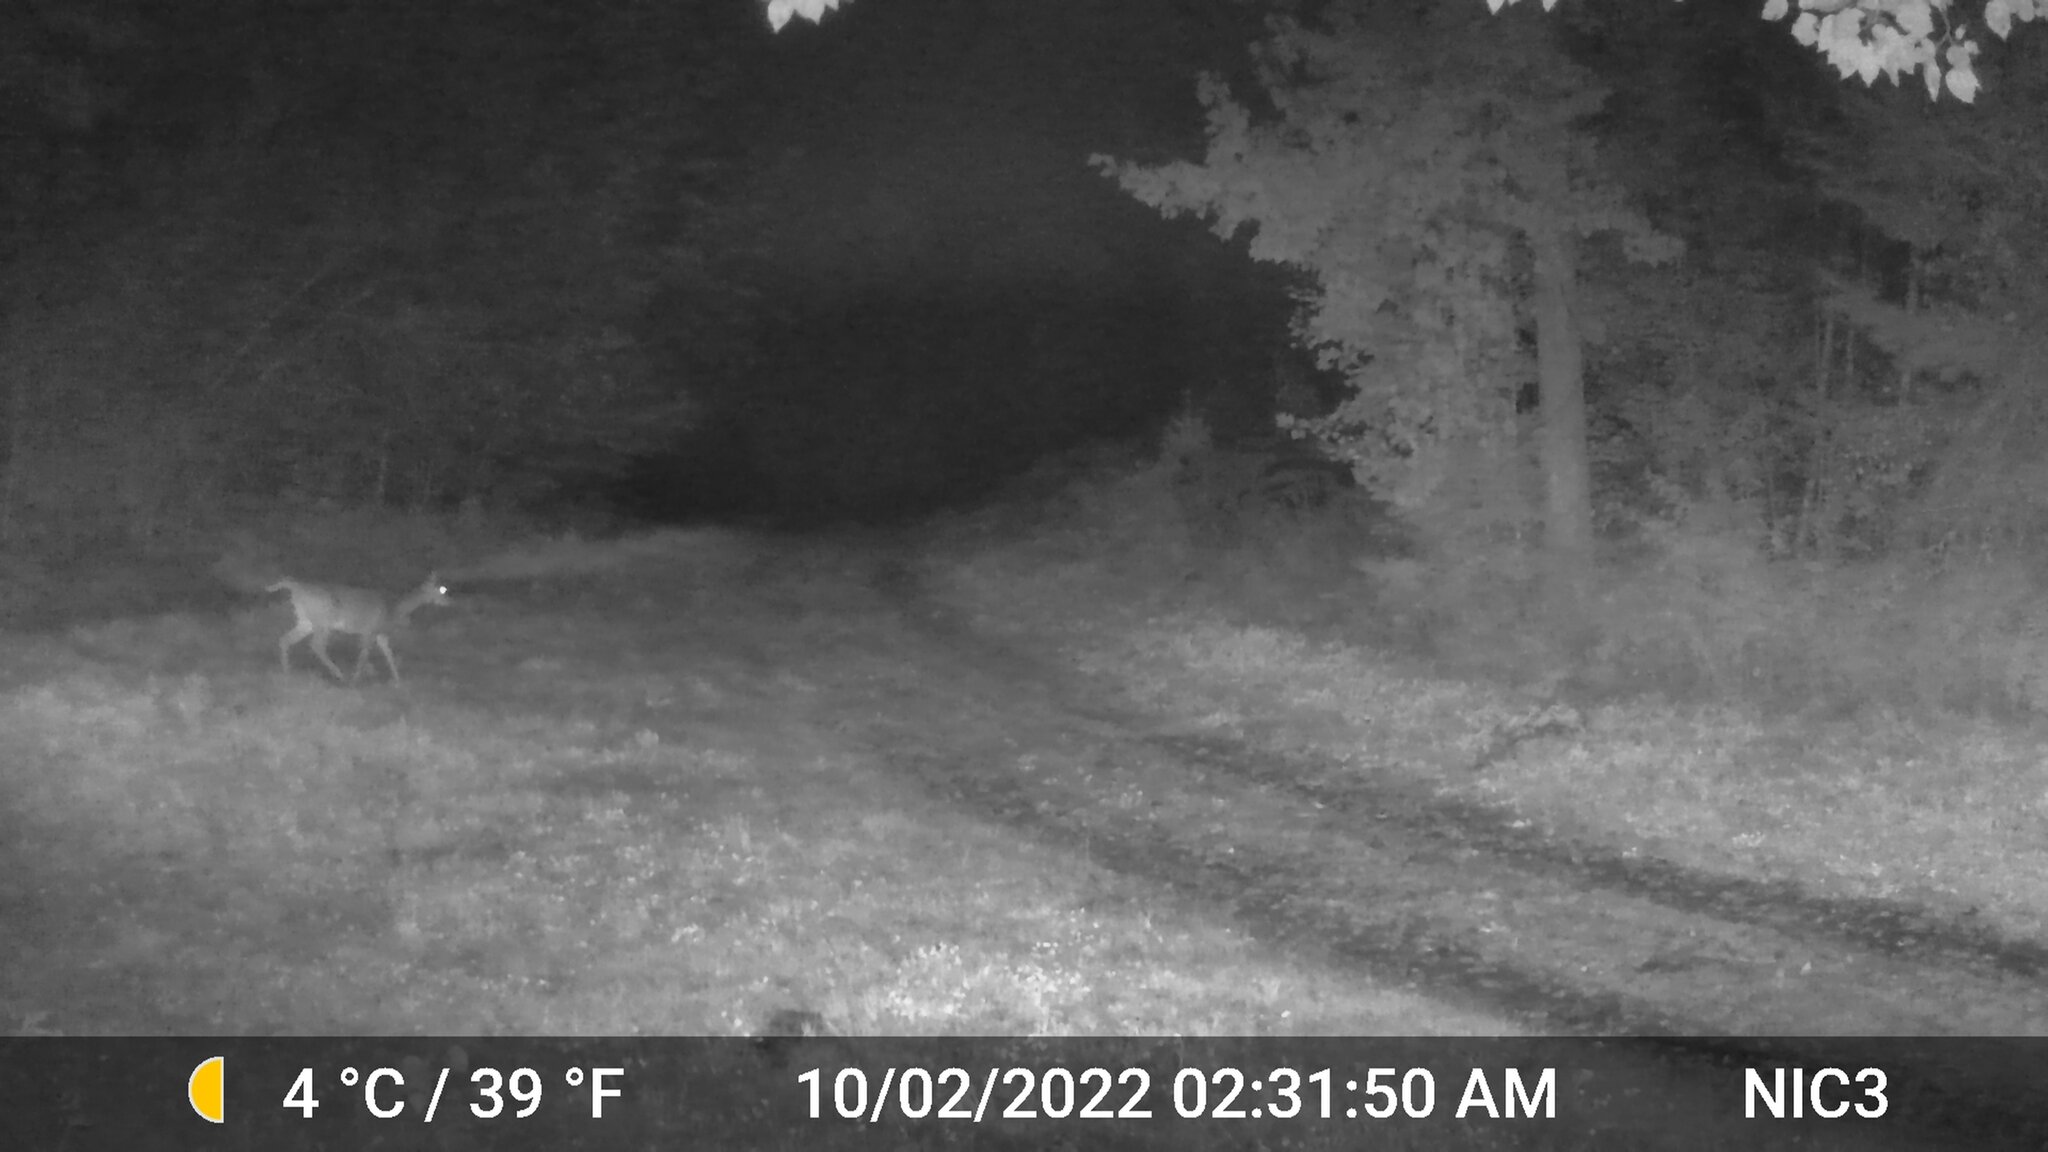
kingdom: Animalia
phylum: Chordata
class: Mammalia
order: Artiodactyla
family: Cervidae
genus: Odocoileus
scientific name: Odocoileus virginianus
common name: White-tailed deer
